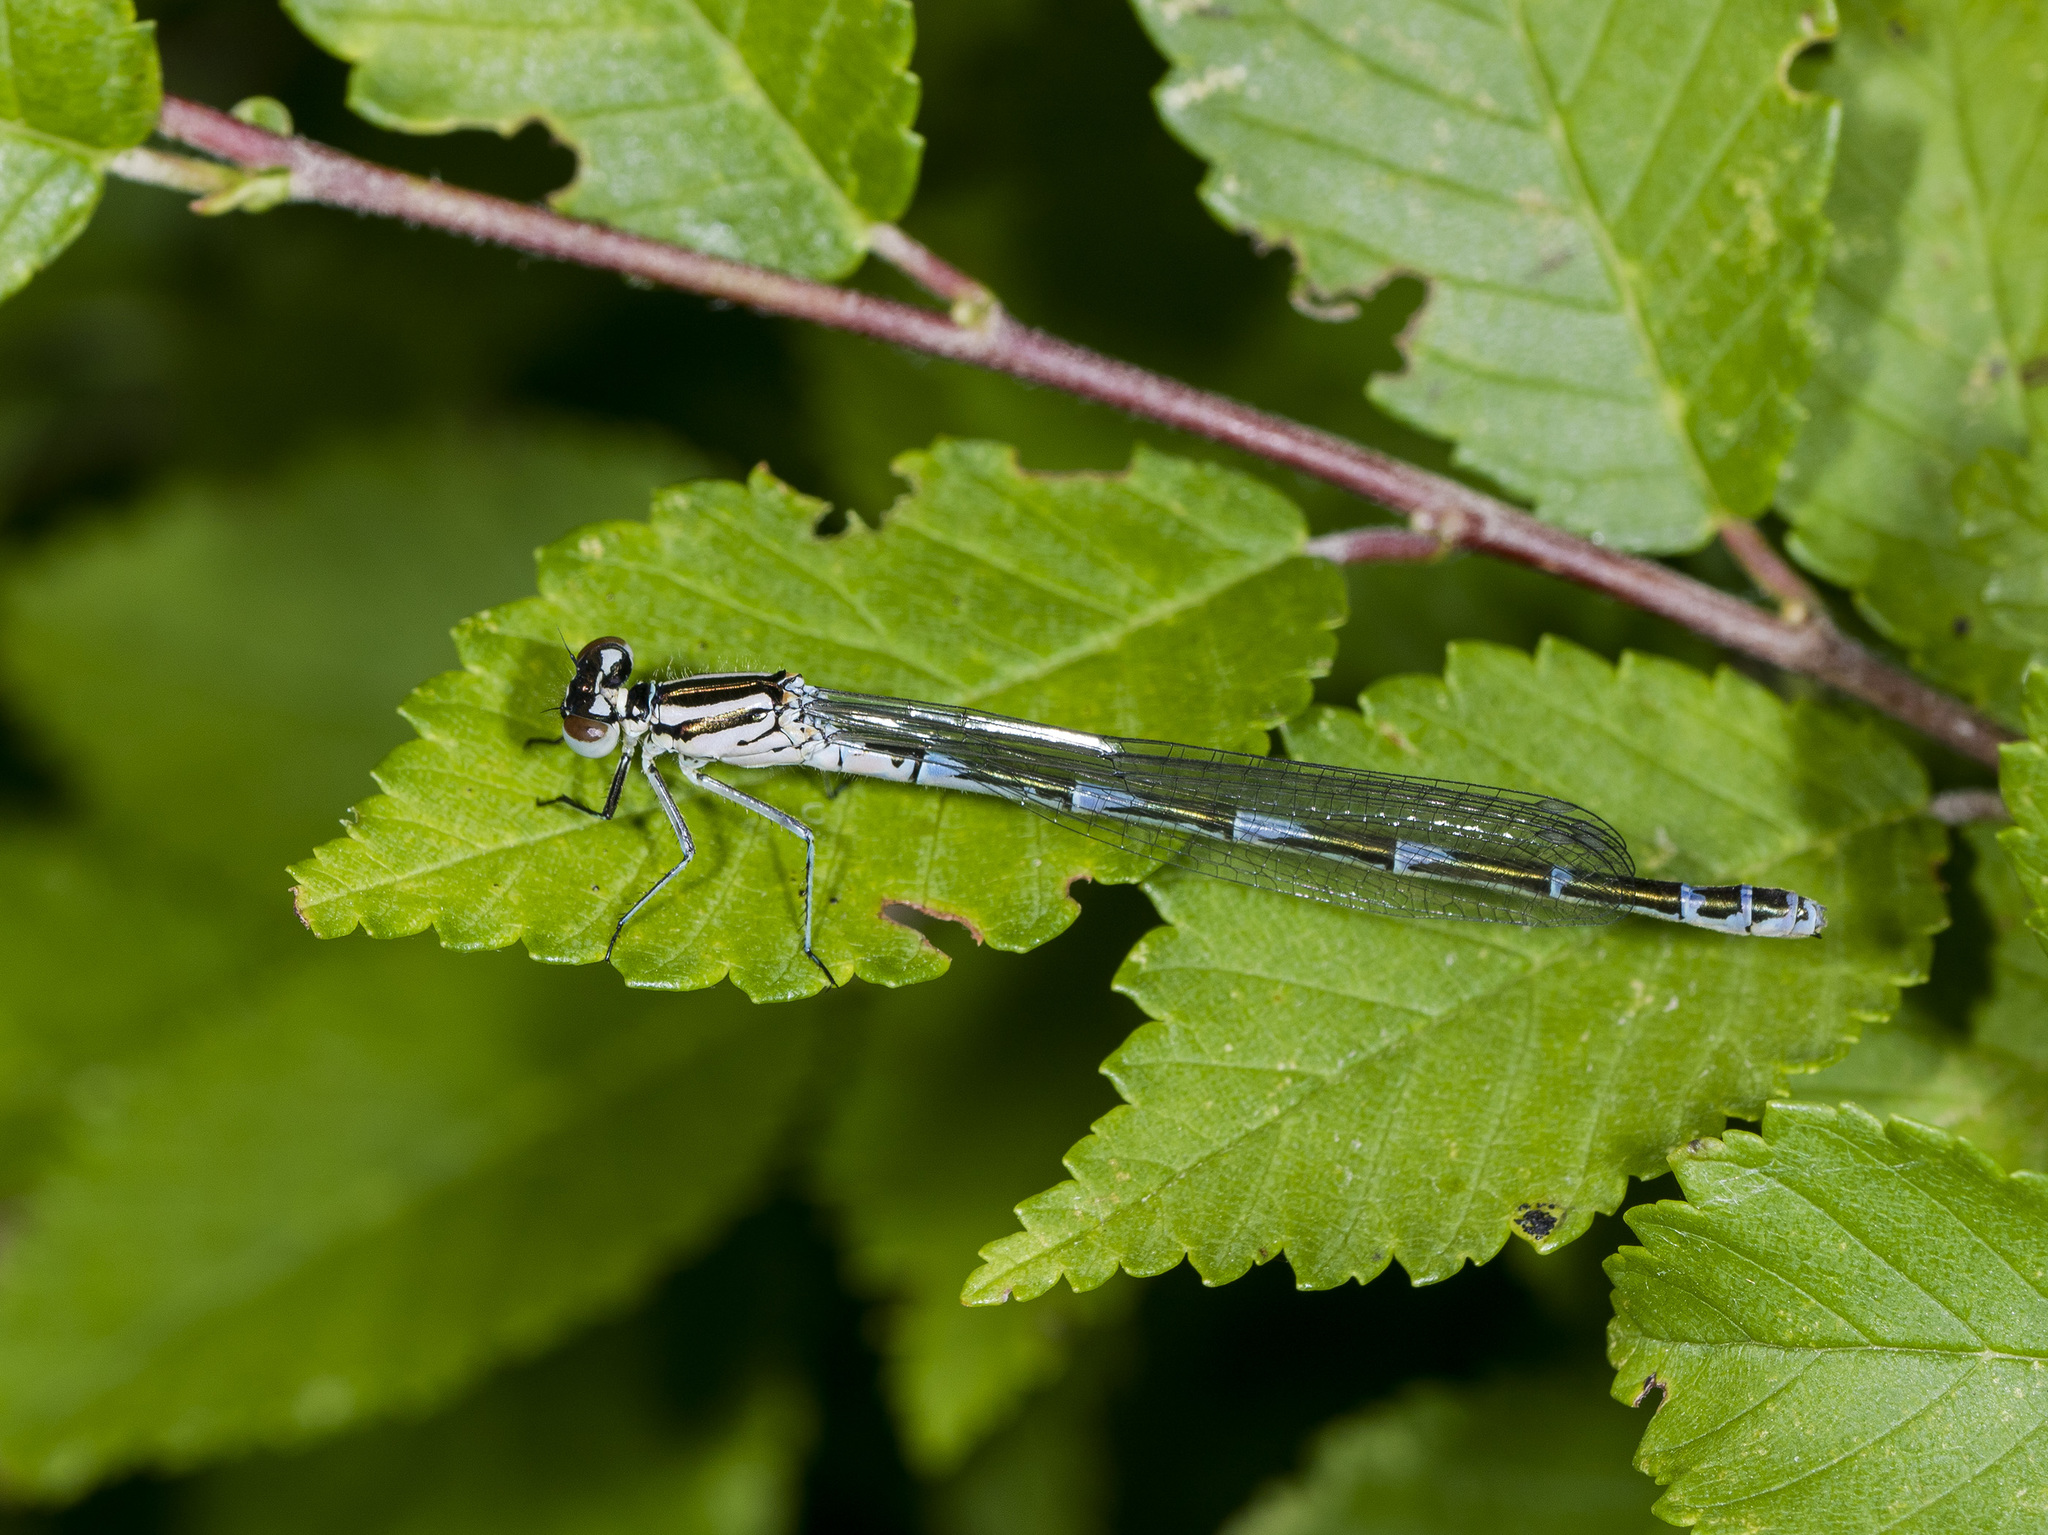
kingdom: Animalia
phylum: Arthropoda
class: Insecta
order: Odonata
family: Coenagrionidae
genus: Coenagrion
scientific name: Coenagrion puella
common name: Azure damselfly
